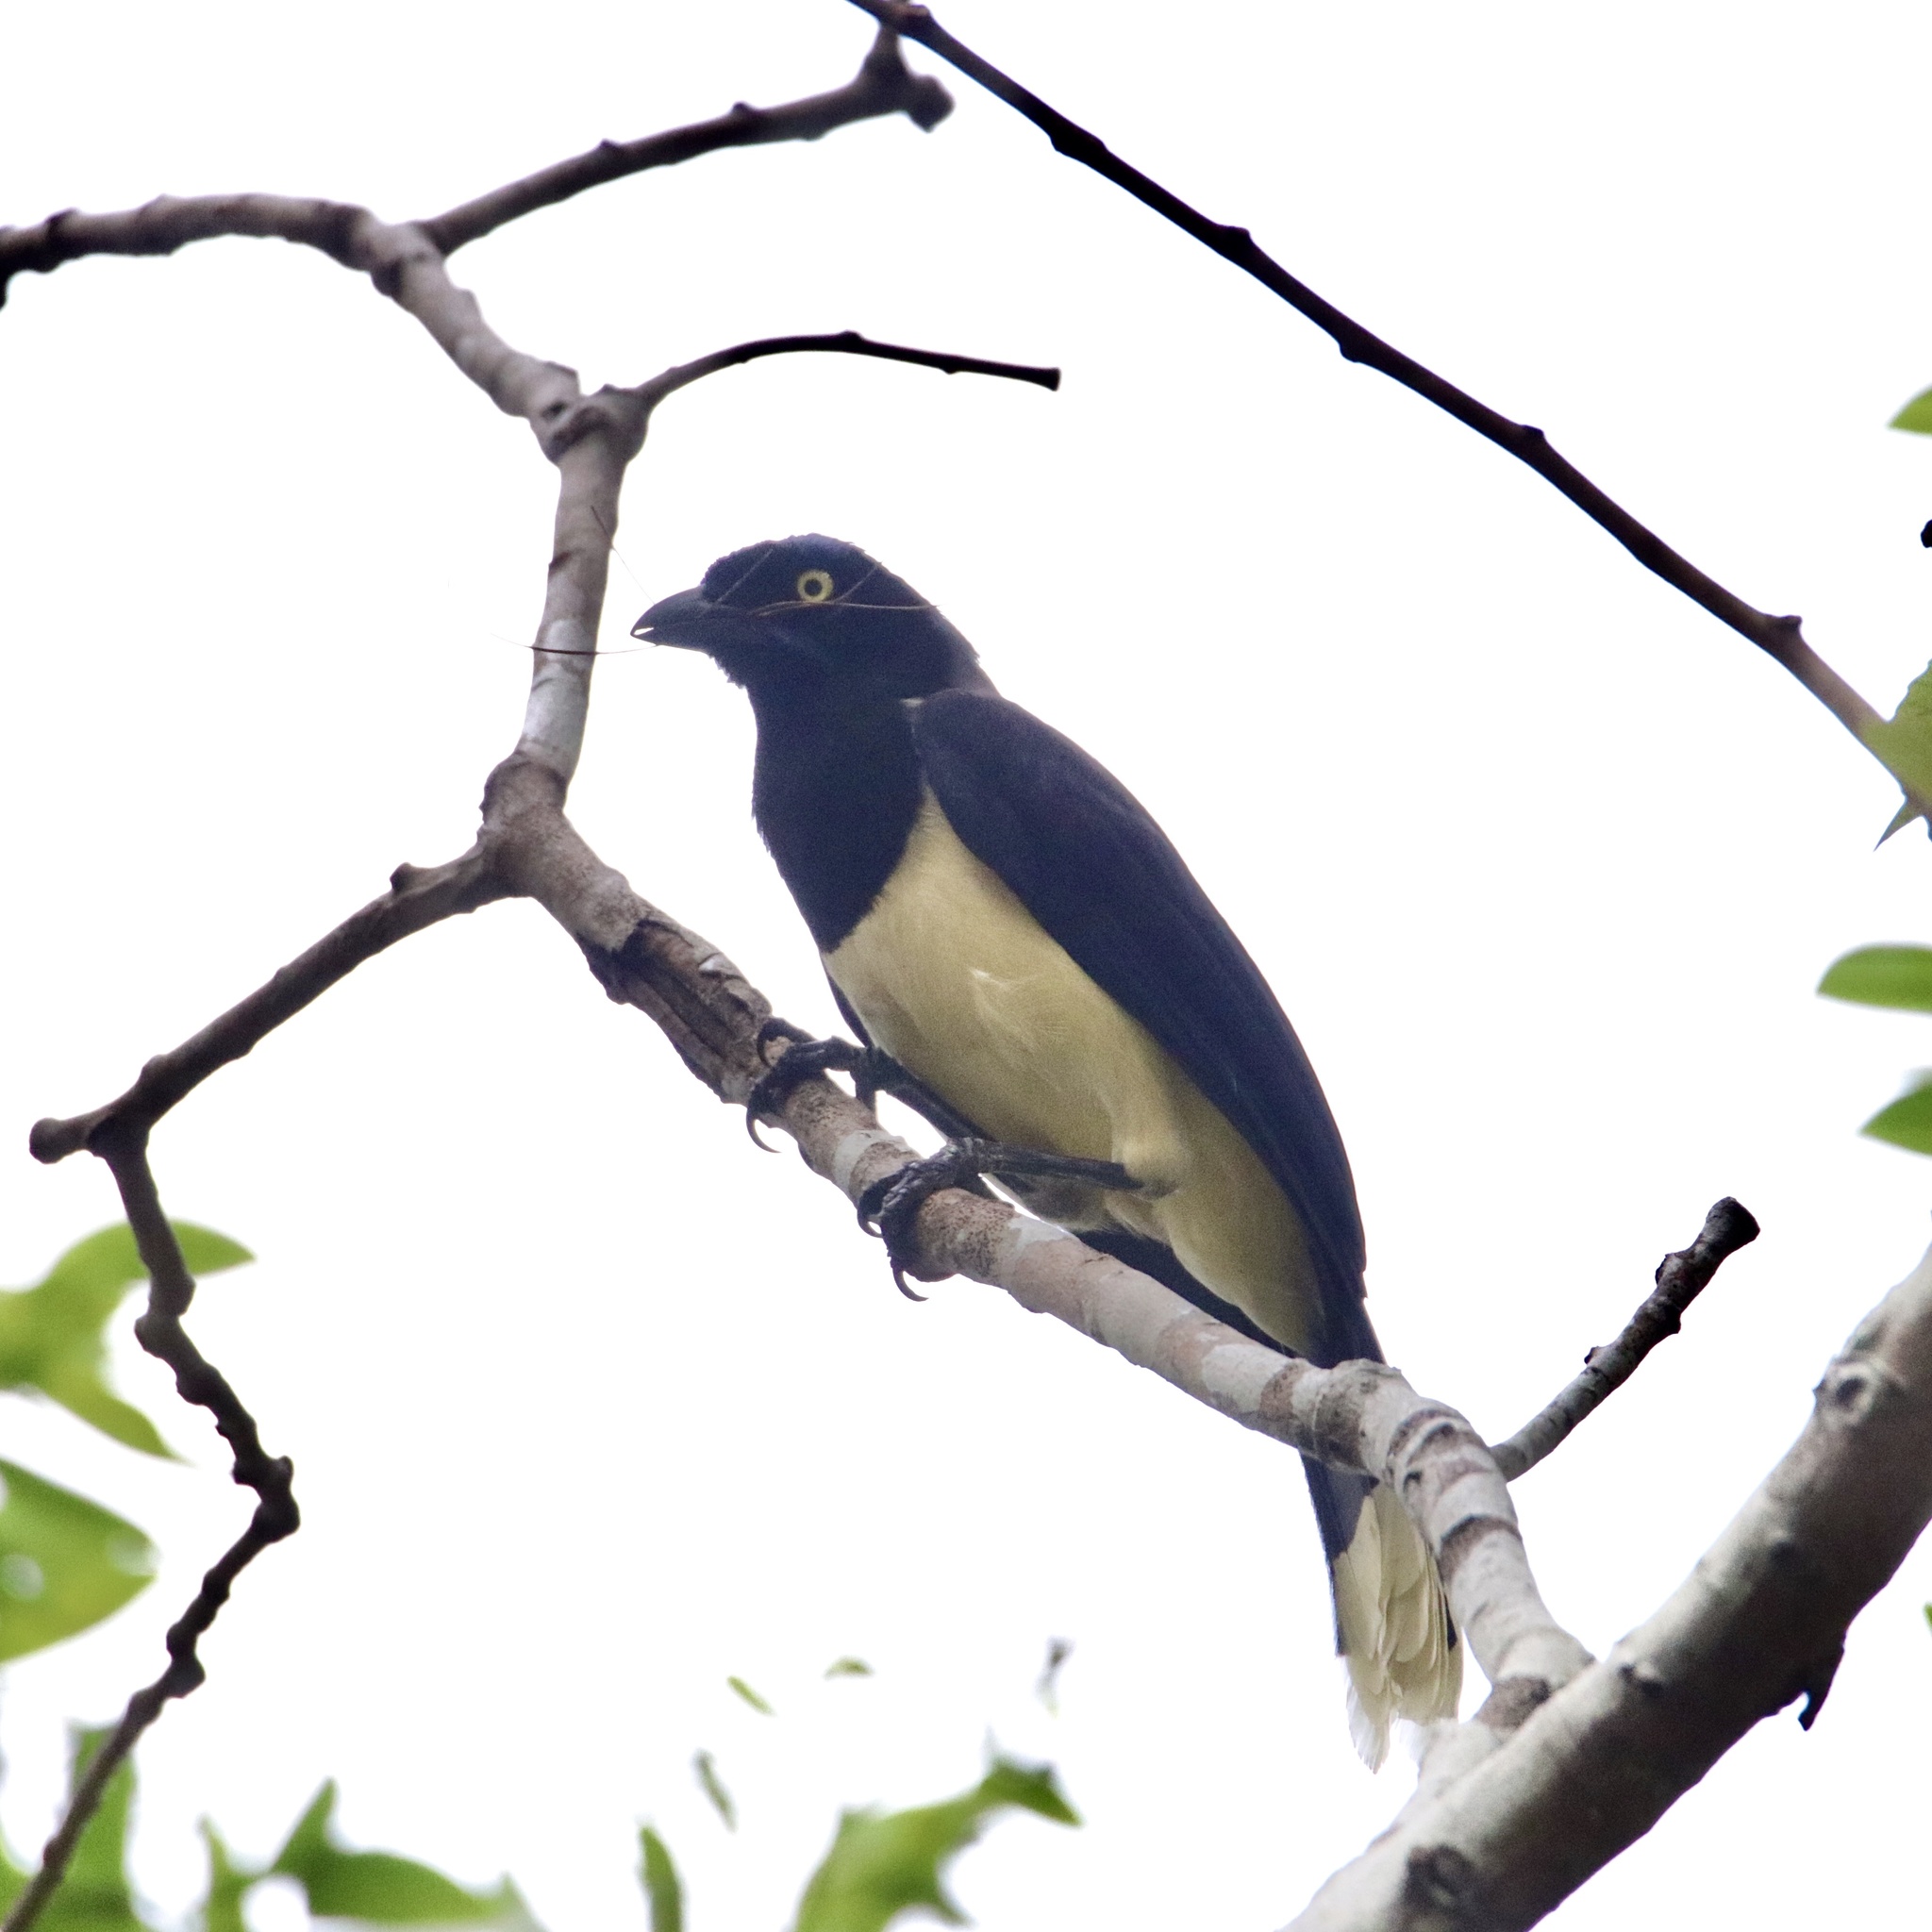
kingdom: Animalia
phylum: Chordata
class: Aves
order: Passeriformes
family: Corvidae
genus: Cyanocorax
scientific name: Cyanocorax affinis
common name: Black-chested jay
